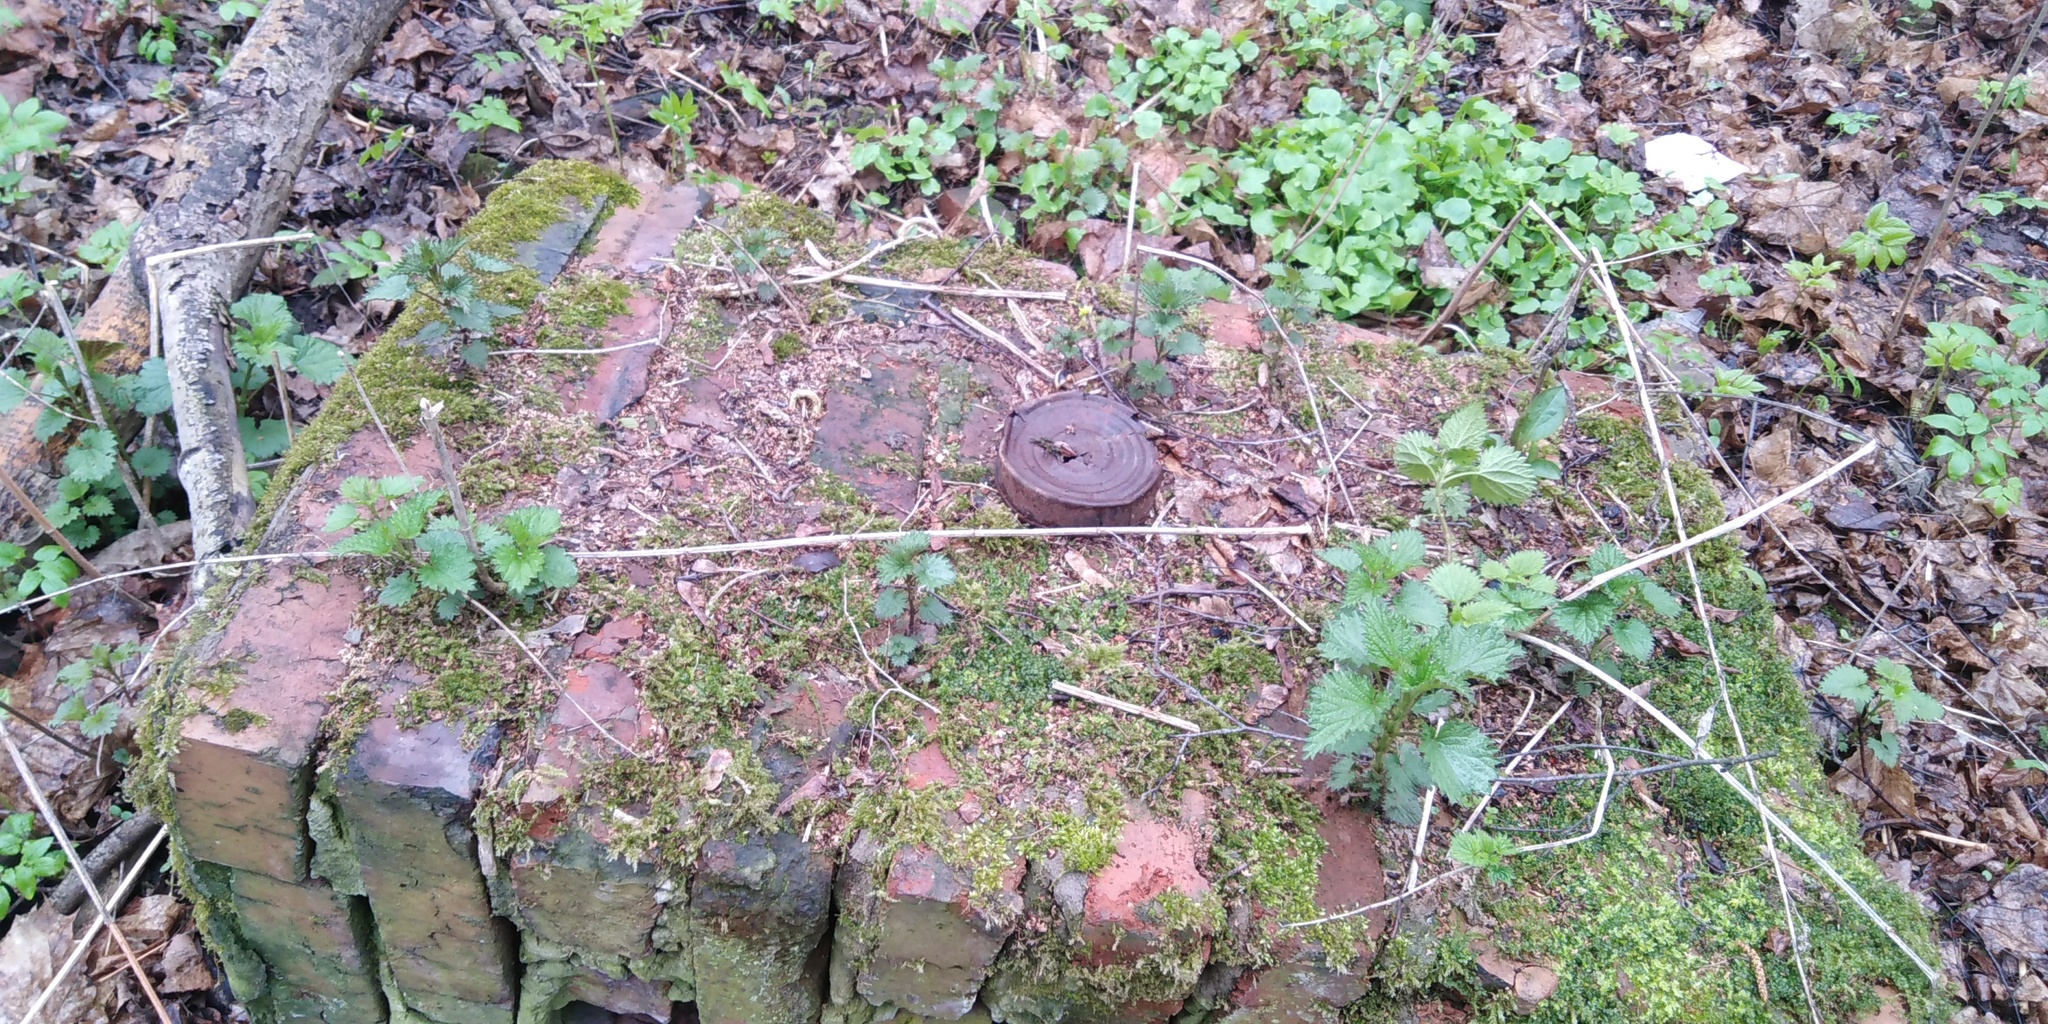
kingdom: Plantae
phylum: Tracheophyta
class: Magnoliopsida
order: Rosales
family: Urticaceae
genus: Urtica
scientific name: Urtica dioica
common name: Common nettle
